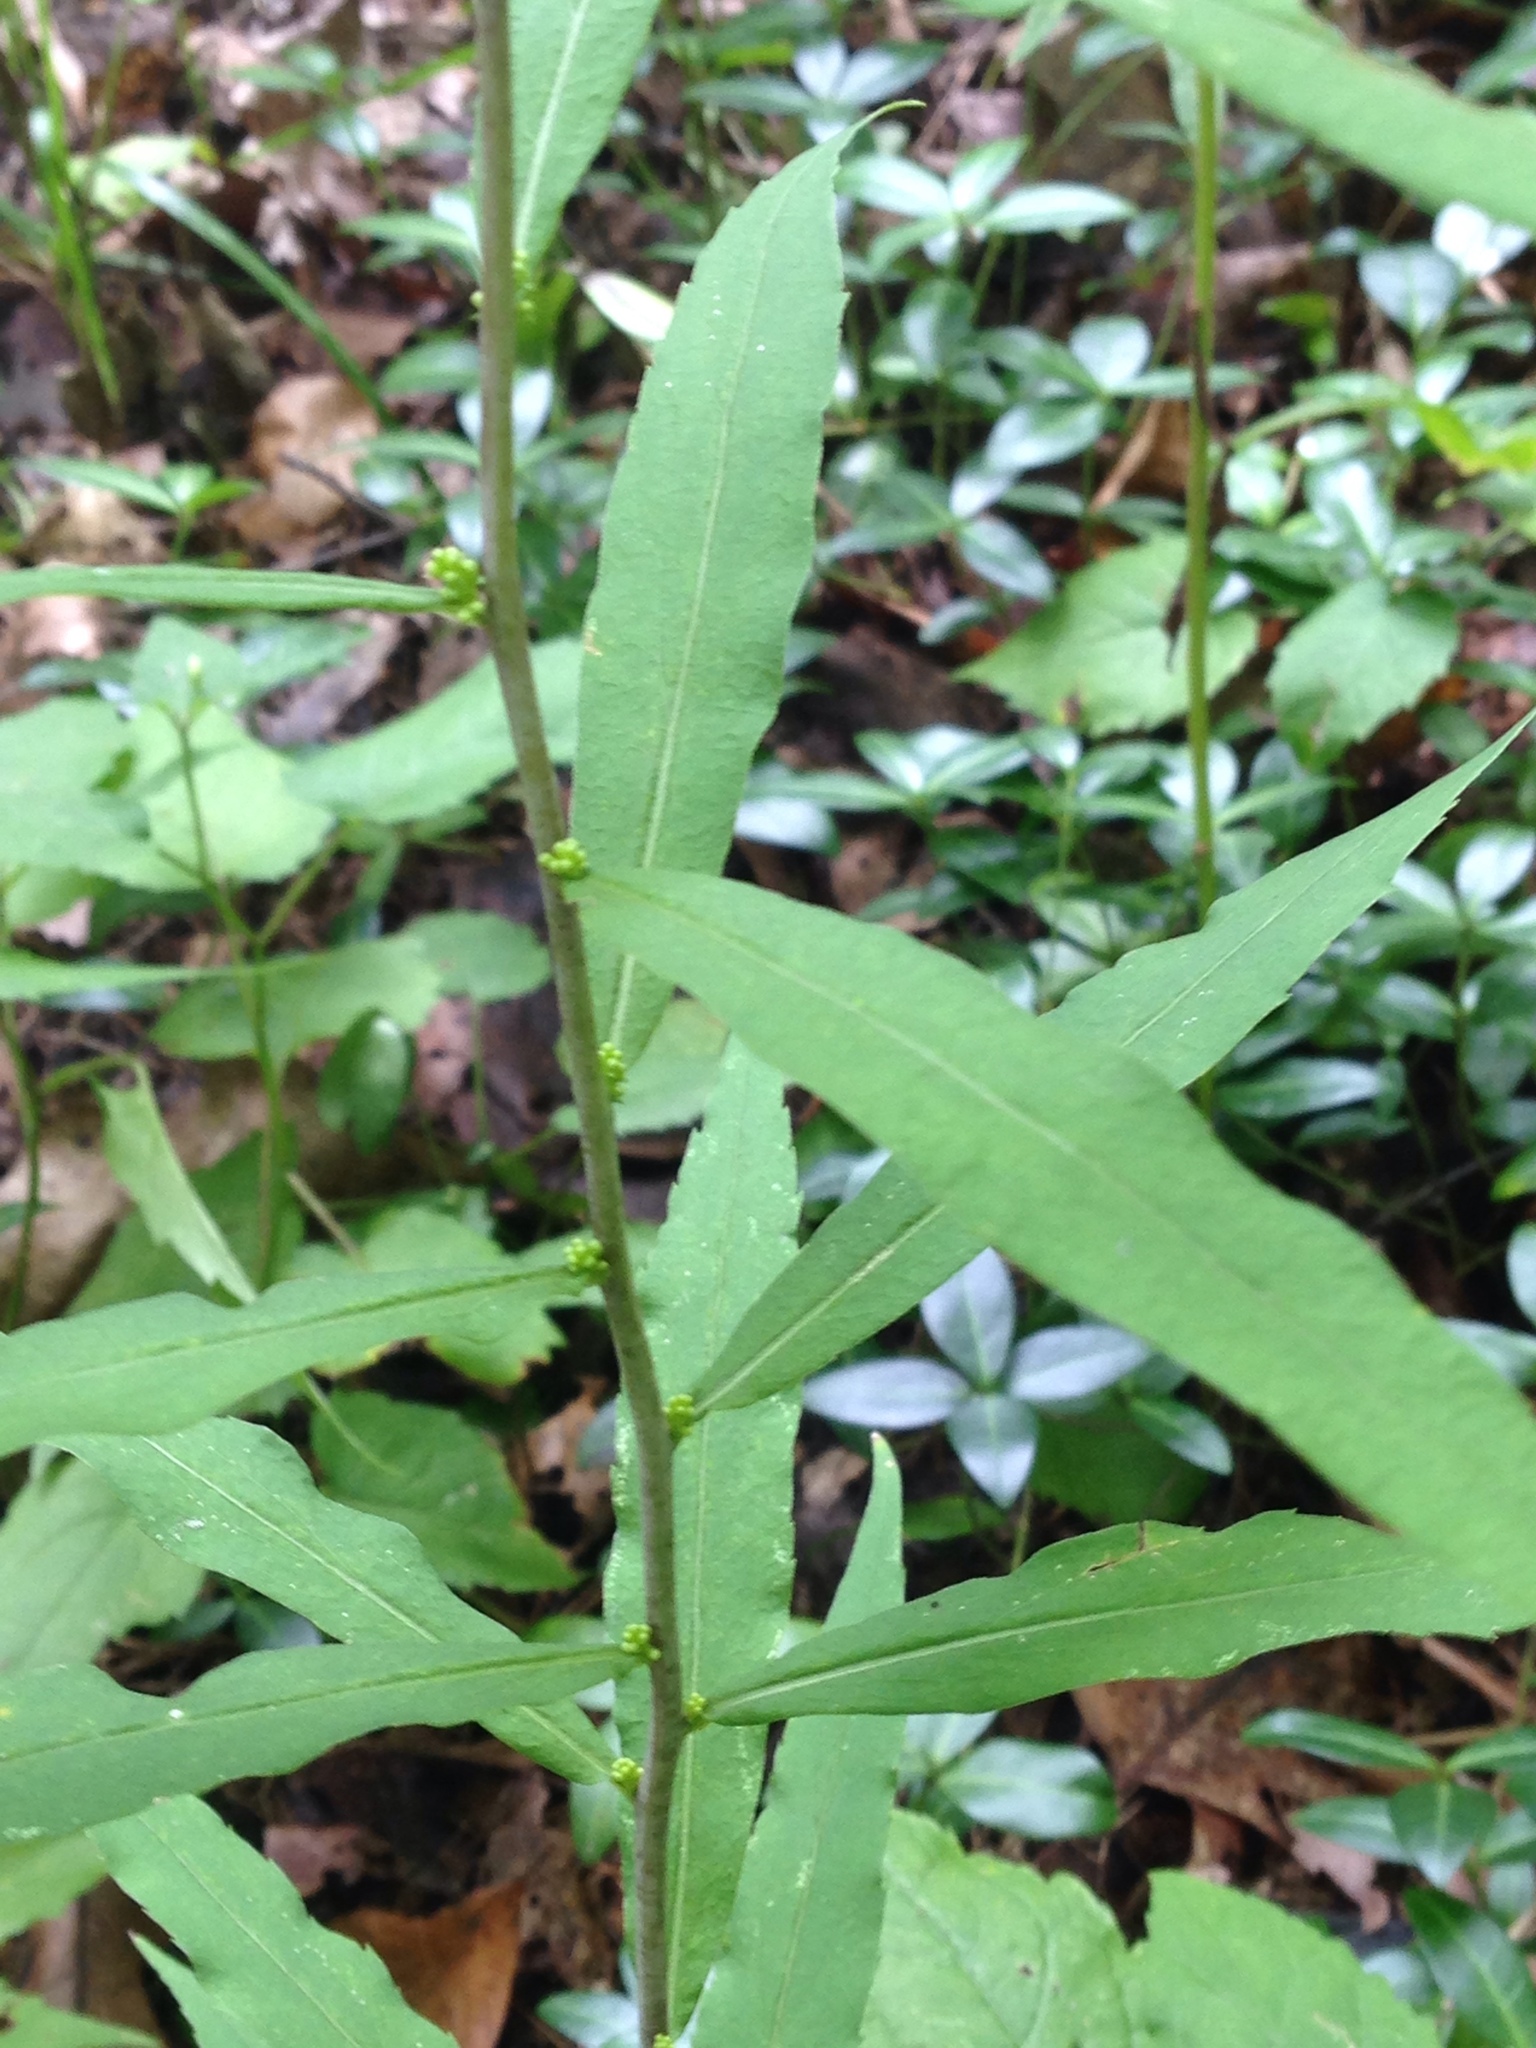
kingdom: Plantae
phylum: Tracheophyta
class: Magnoliopsida
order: Asterales
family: Asteraceae
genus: Solidago
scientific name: Solidago caesia
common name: Woodland goldenrod
